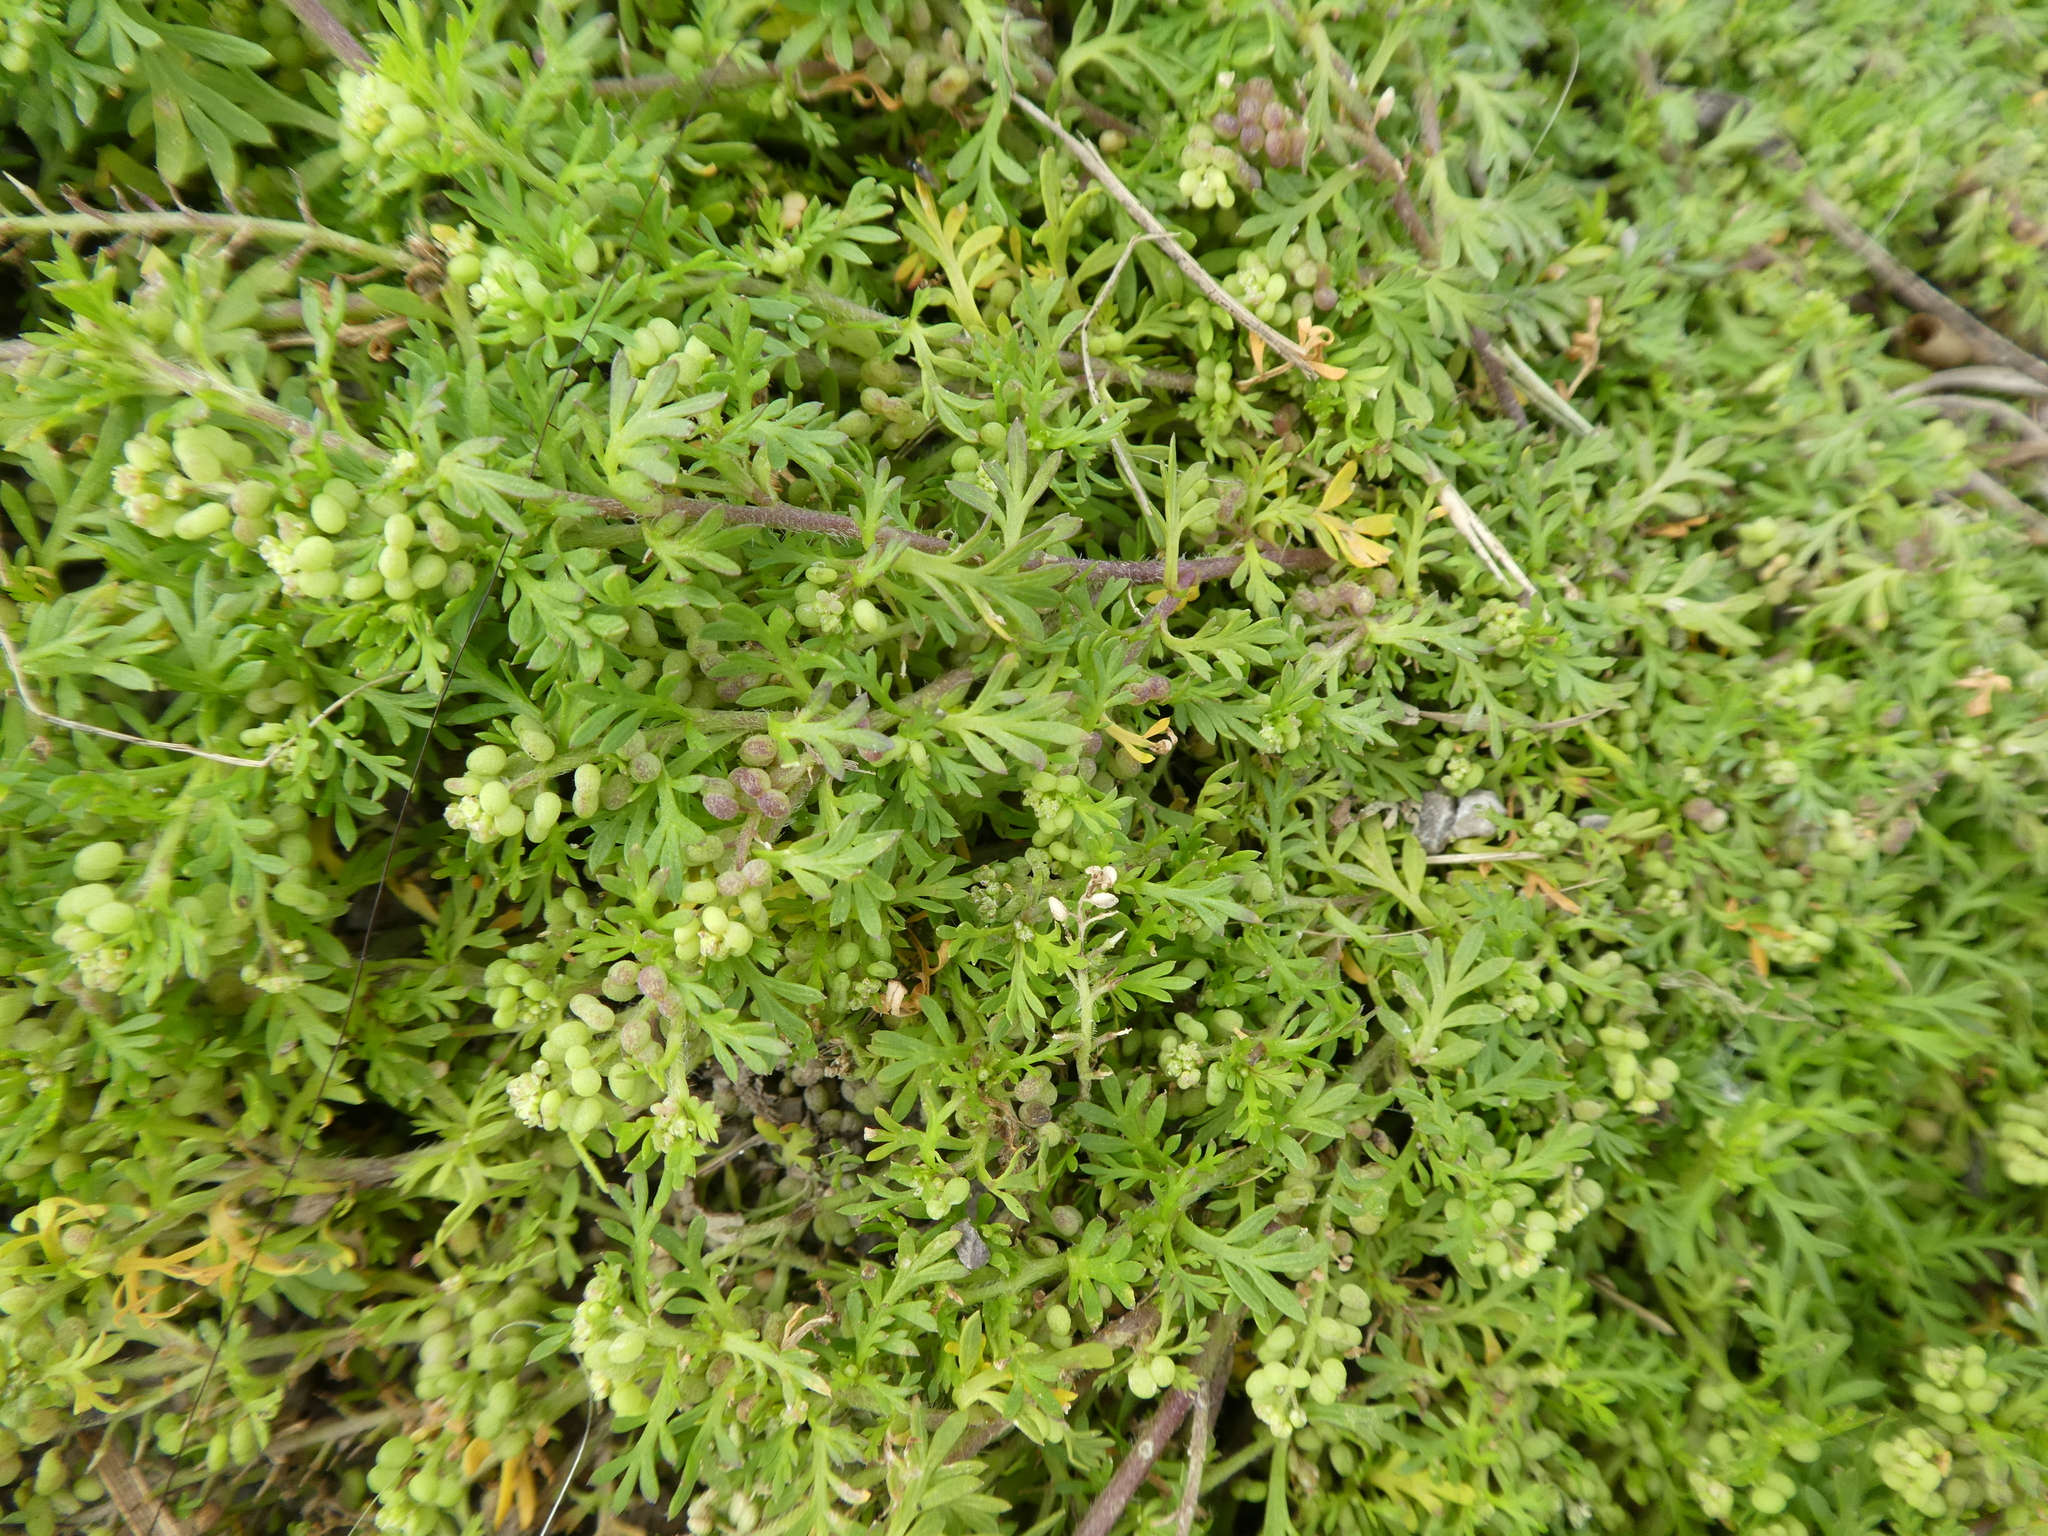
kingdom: Plantae
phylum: Tracheophyta
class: Magnoliopsida
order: Brassicales
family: Brassicaceae
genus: Lepidium
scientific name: Lepidium didymum
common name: Lesser swinecress
